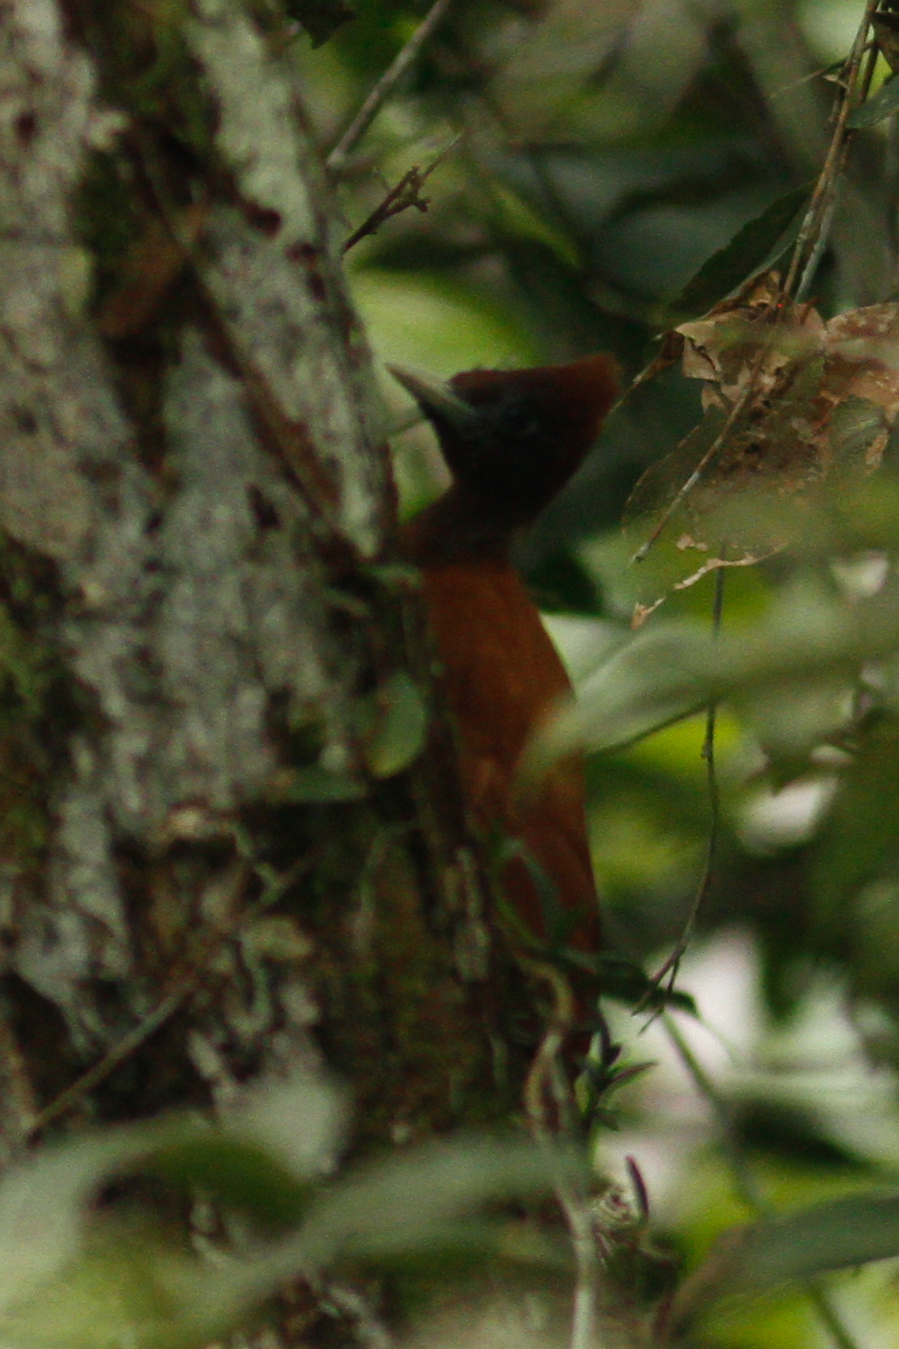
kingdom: Animalia
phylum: Chordata
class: Aves
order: Piciformes
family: Picidae
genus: Celeus
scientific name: Celeus elegans
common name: Chestnut woodpecker
